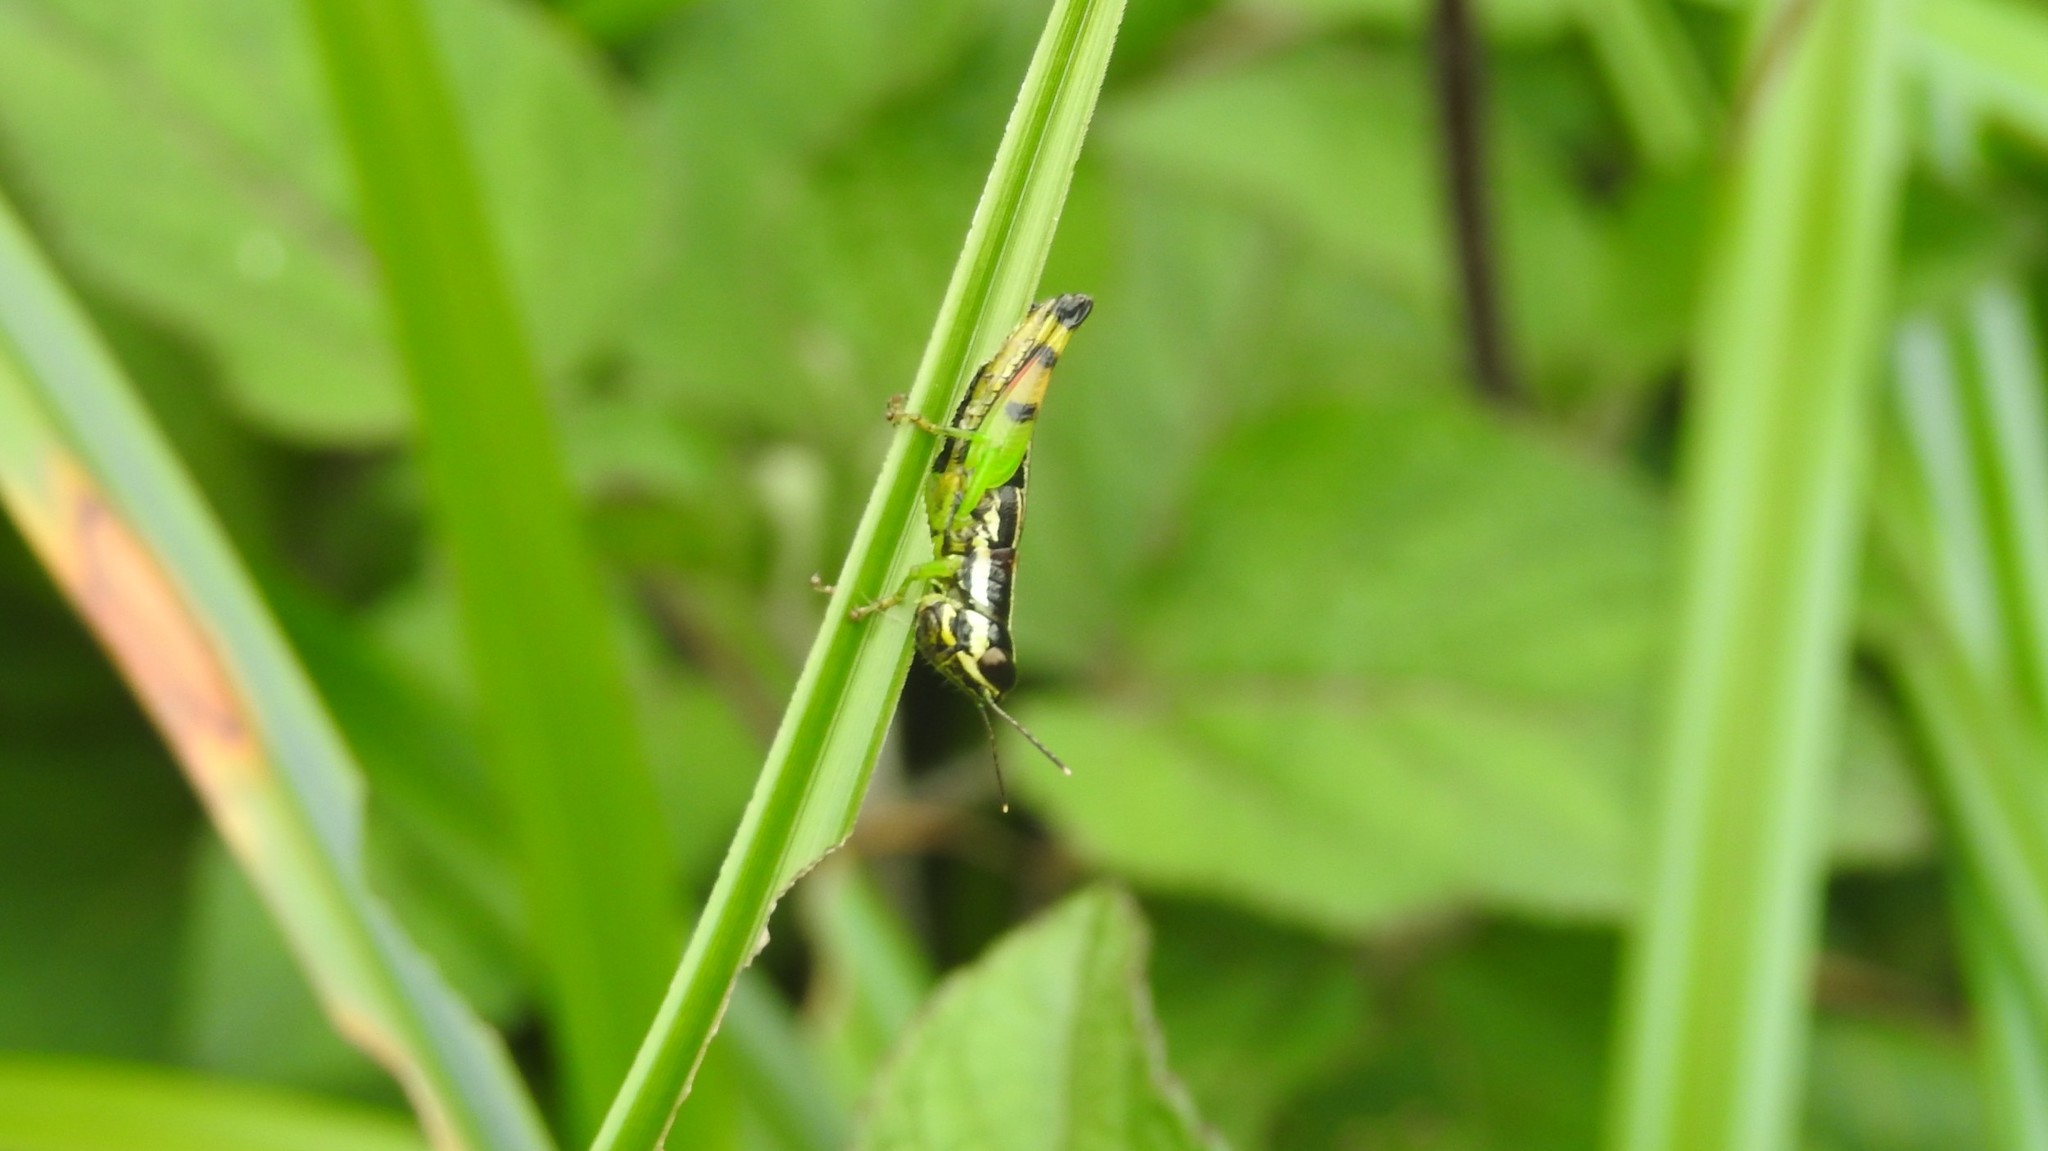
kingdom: Animalia
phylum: Arthropoda
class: Insecta
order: Orthoptera
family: Acrididae
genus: Chitaura
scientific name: Chitaura indica
